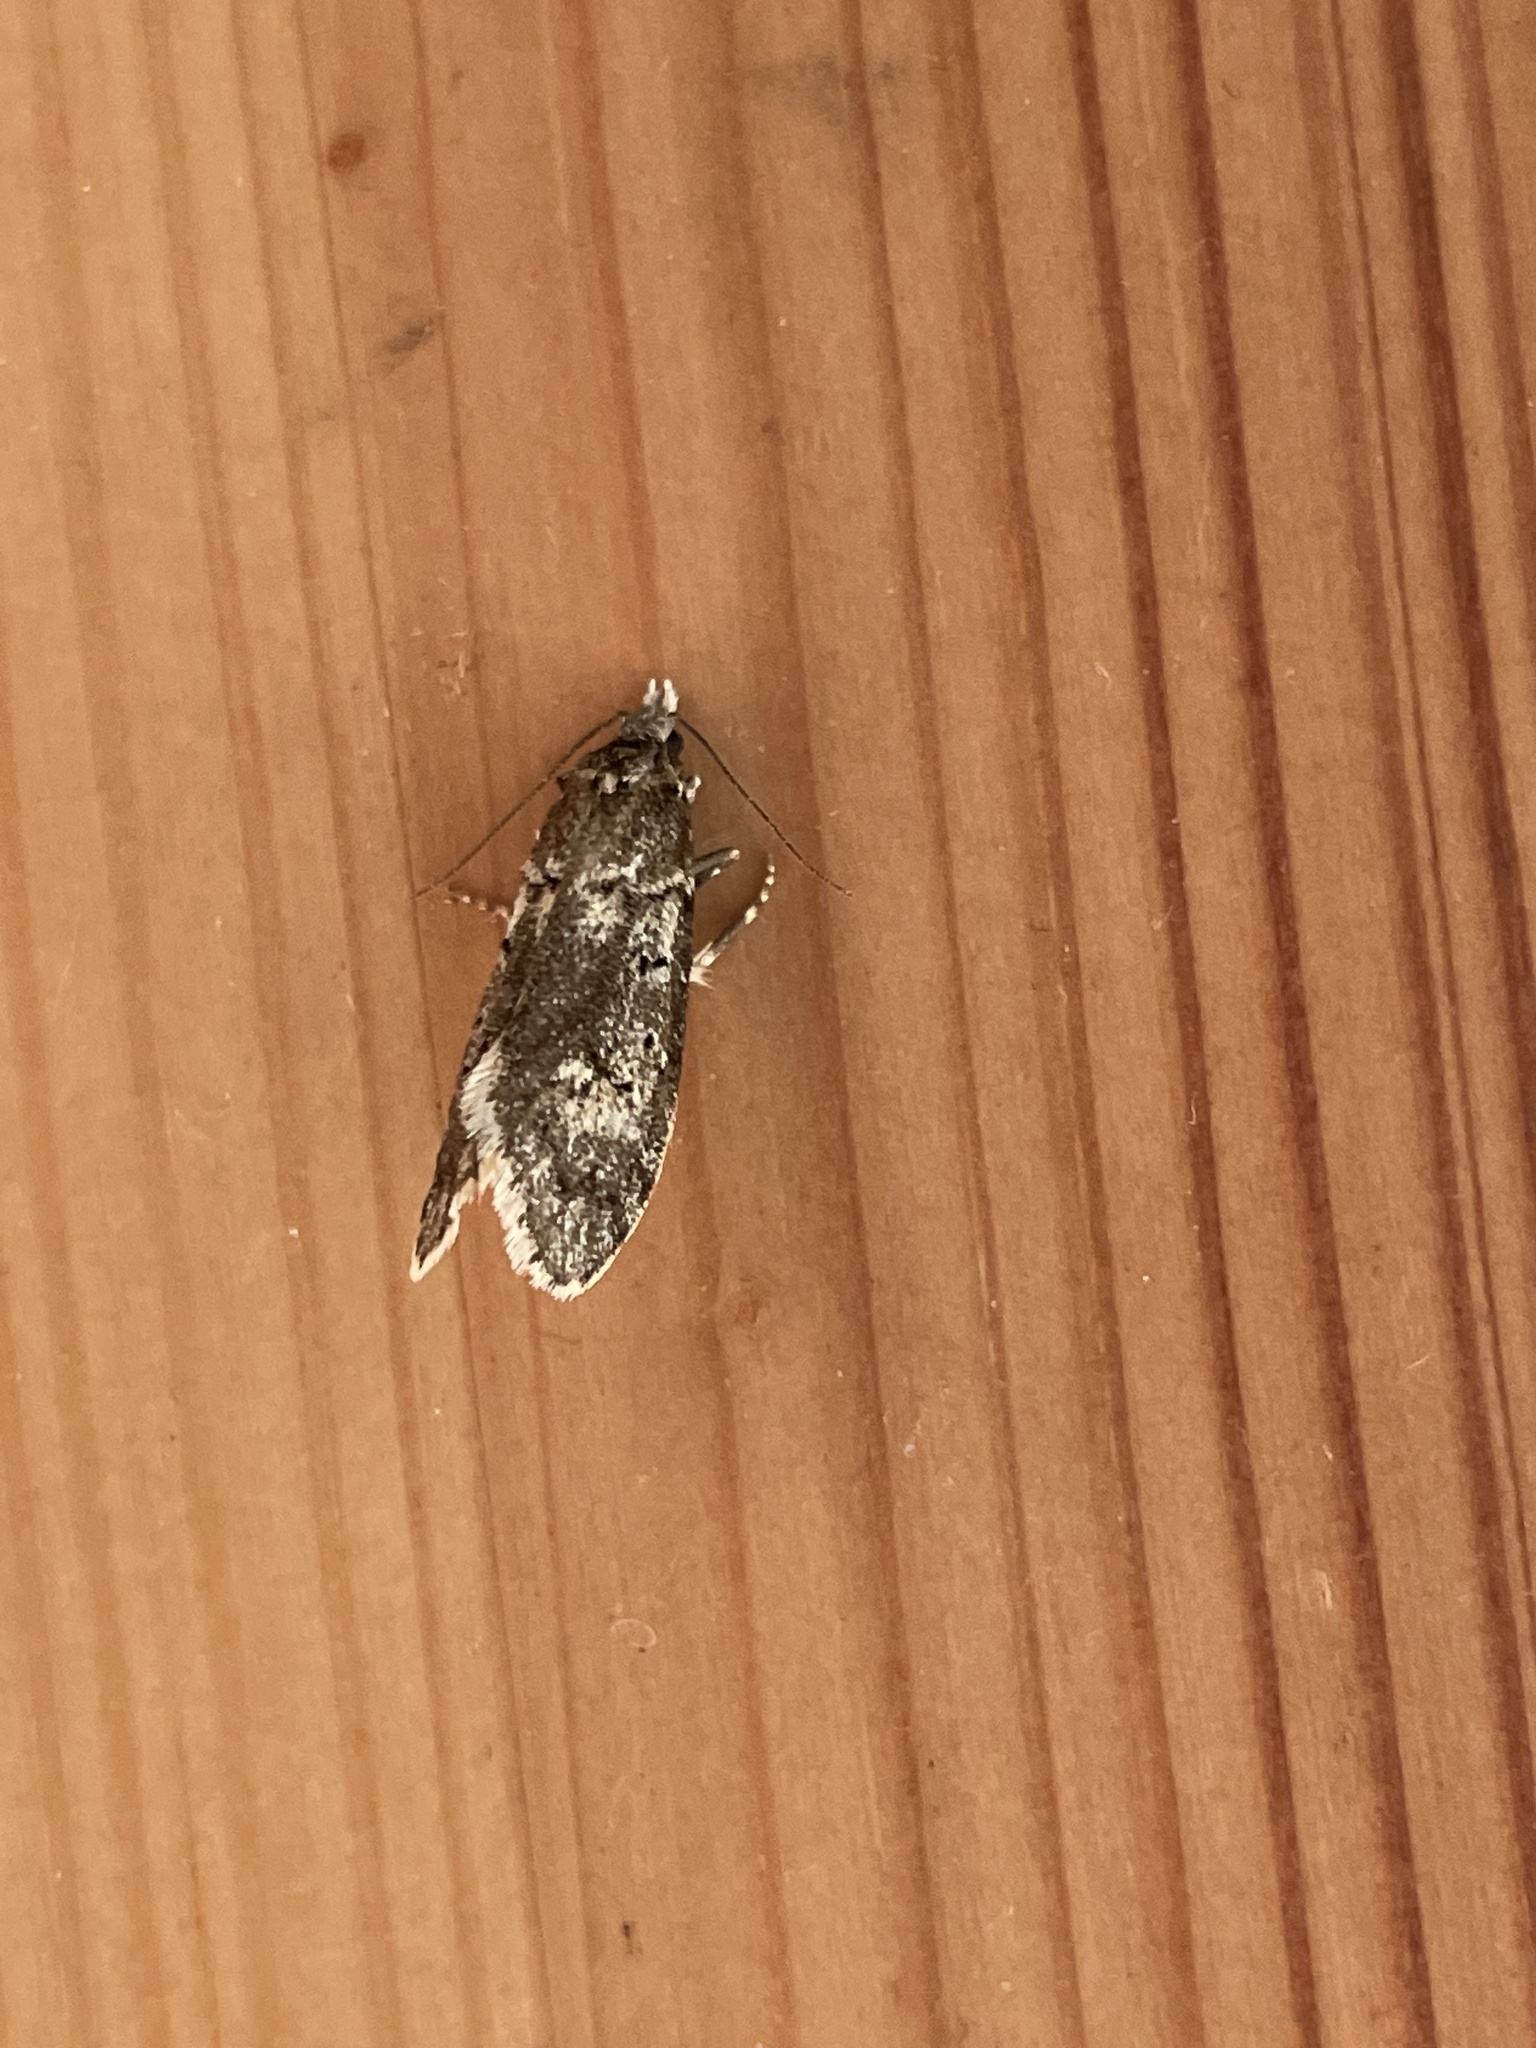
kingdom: Animalia
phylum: Arthropoda
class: Insecta
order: Lepidoptera
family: Lypusidae
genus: Diurnea
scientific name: Diurnea fagella
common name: March tubic
